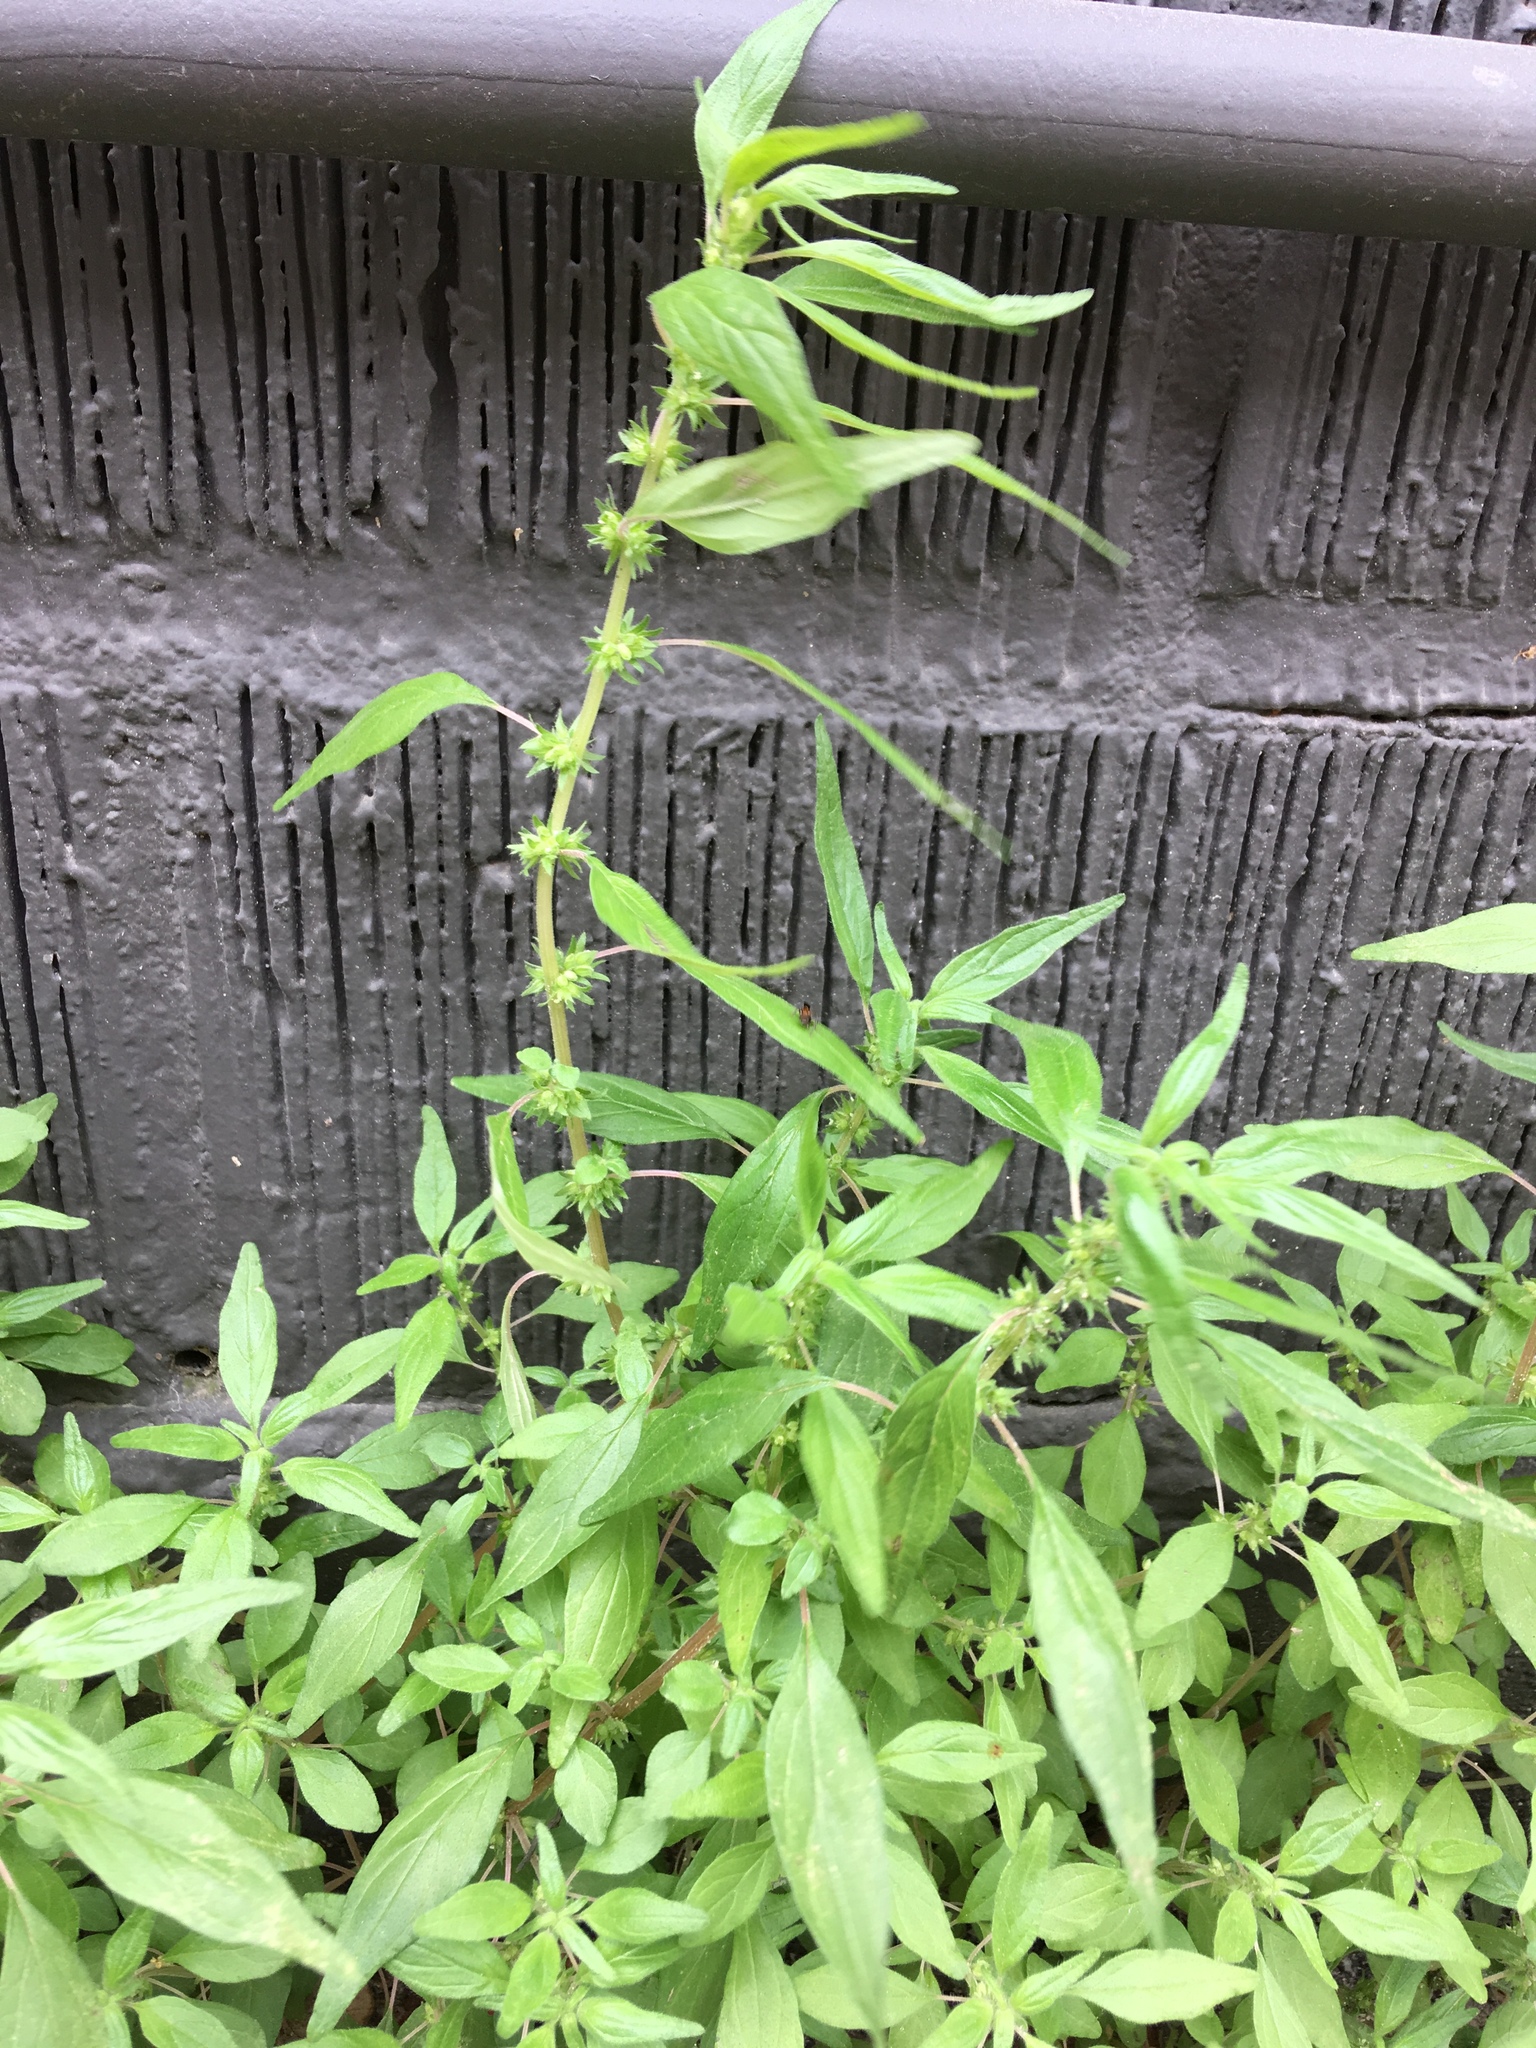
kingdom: Plantae
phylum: Tracheophyta
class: Magnoliopsida
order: Rosales
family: Urticaceae
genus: Parietaria
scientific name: Parietaria pensylvanica
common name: Pennsylvania pellitory
